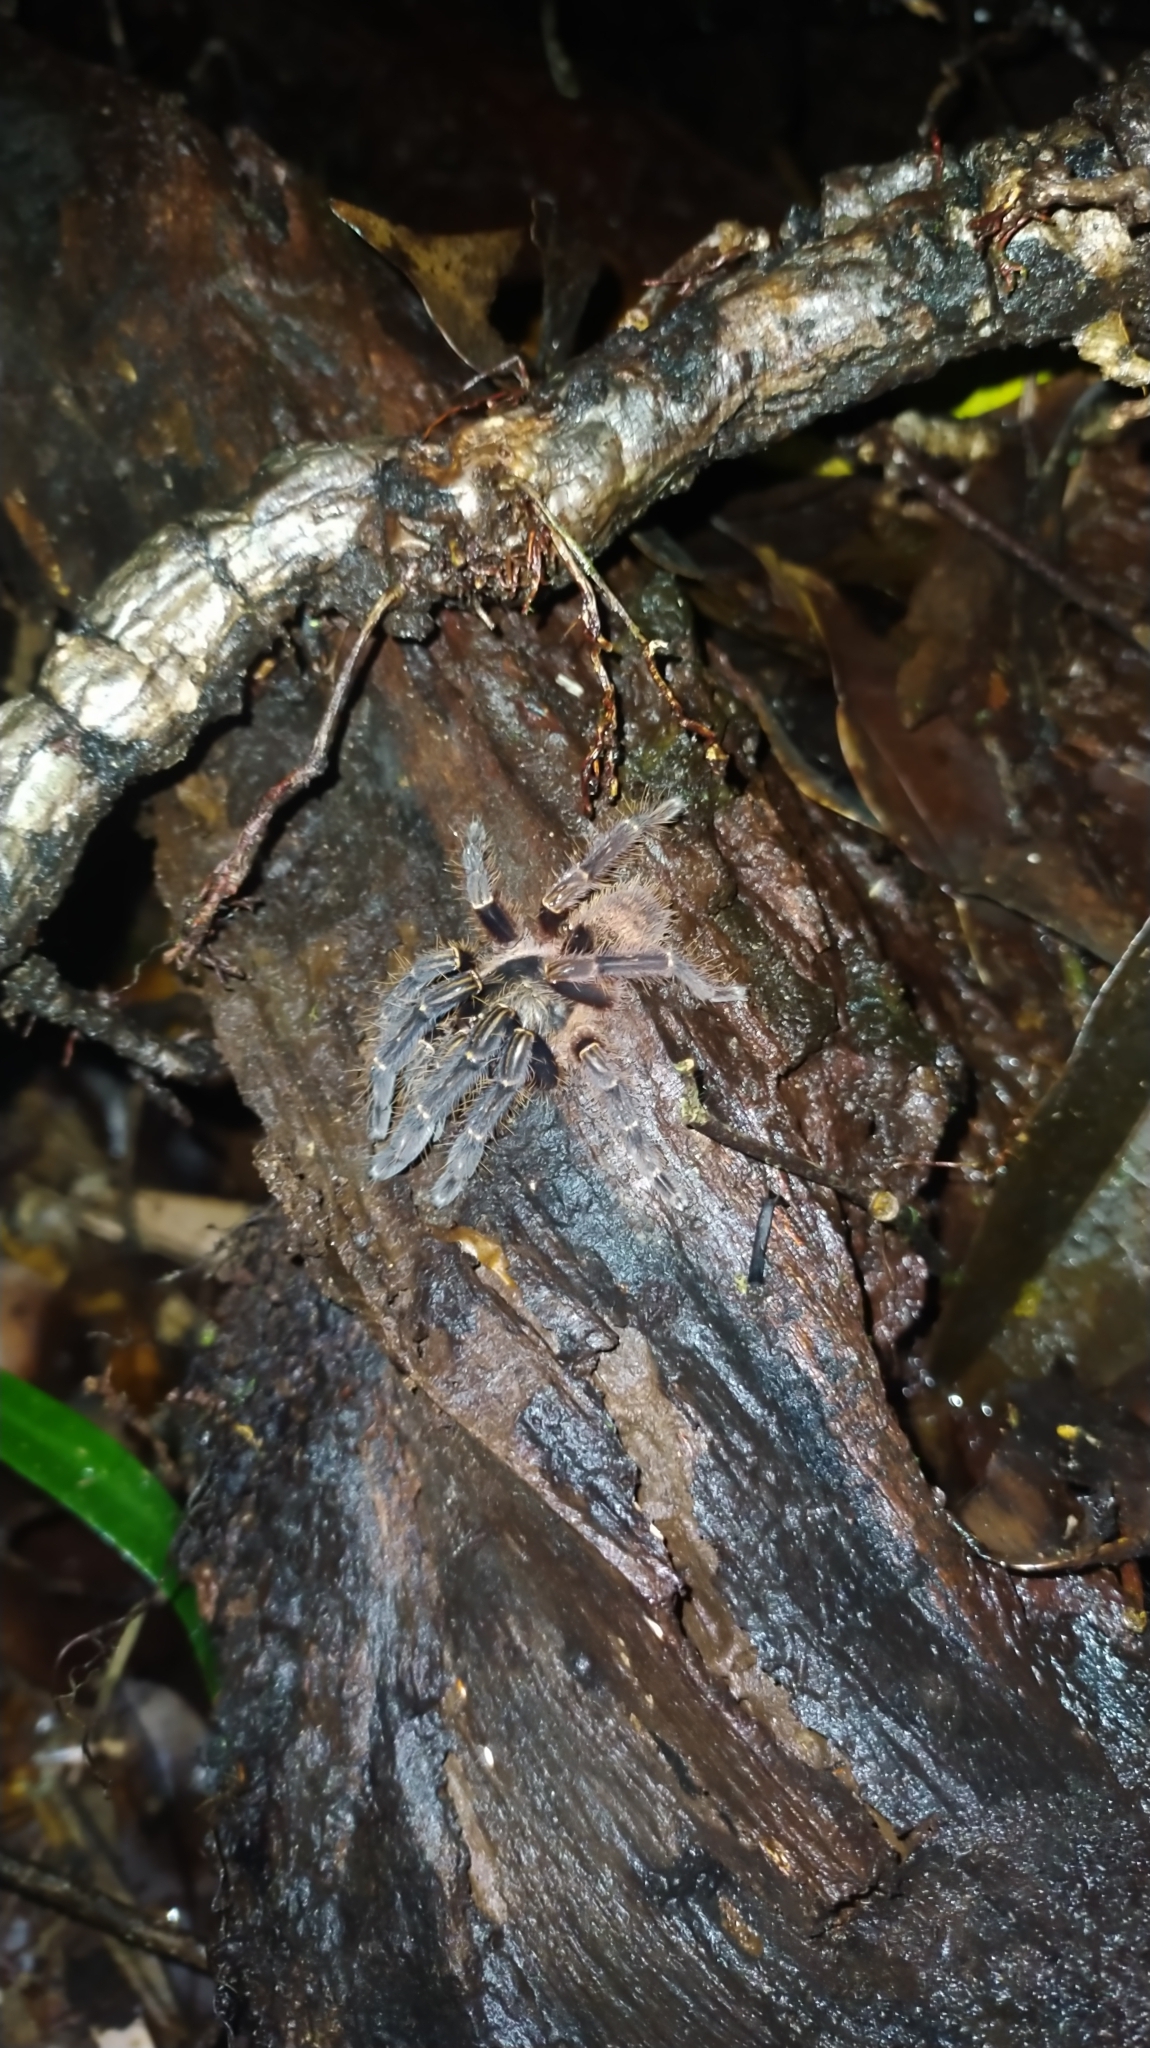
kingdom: Animalia
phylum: Arthropoda
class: Arachnida
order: Araneae
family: Theraphosidae
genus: Ephebopus
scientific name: Ephebopus rufescens
